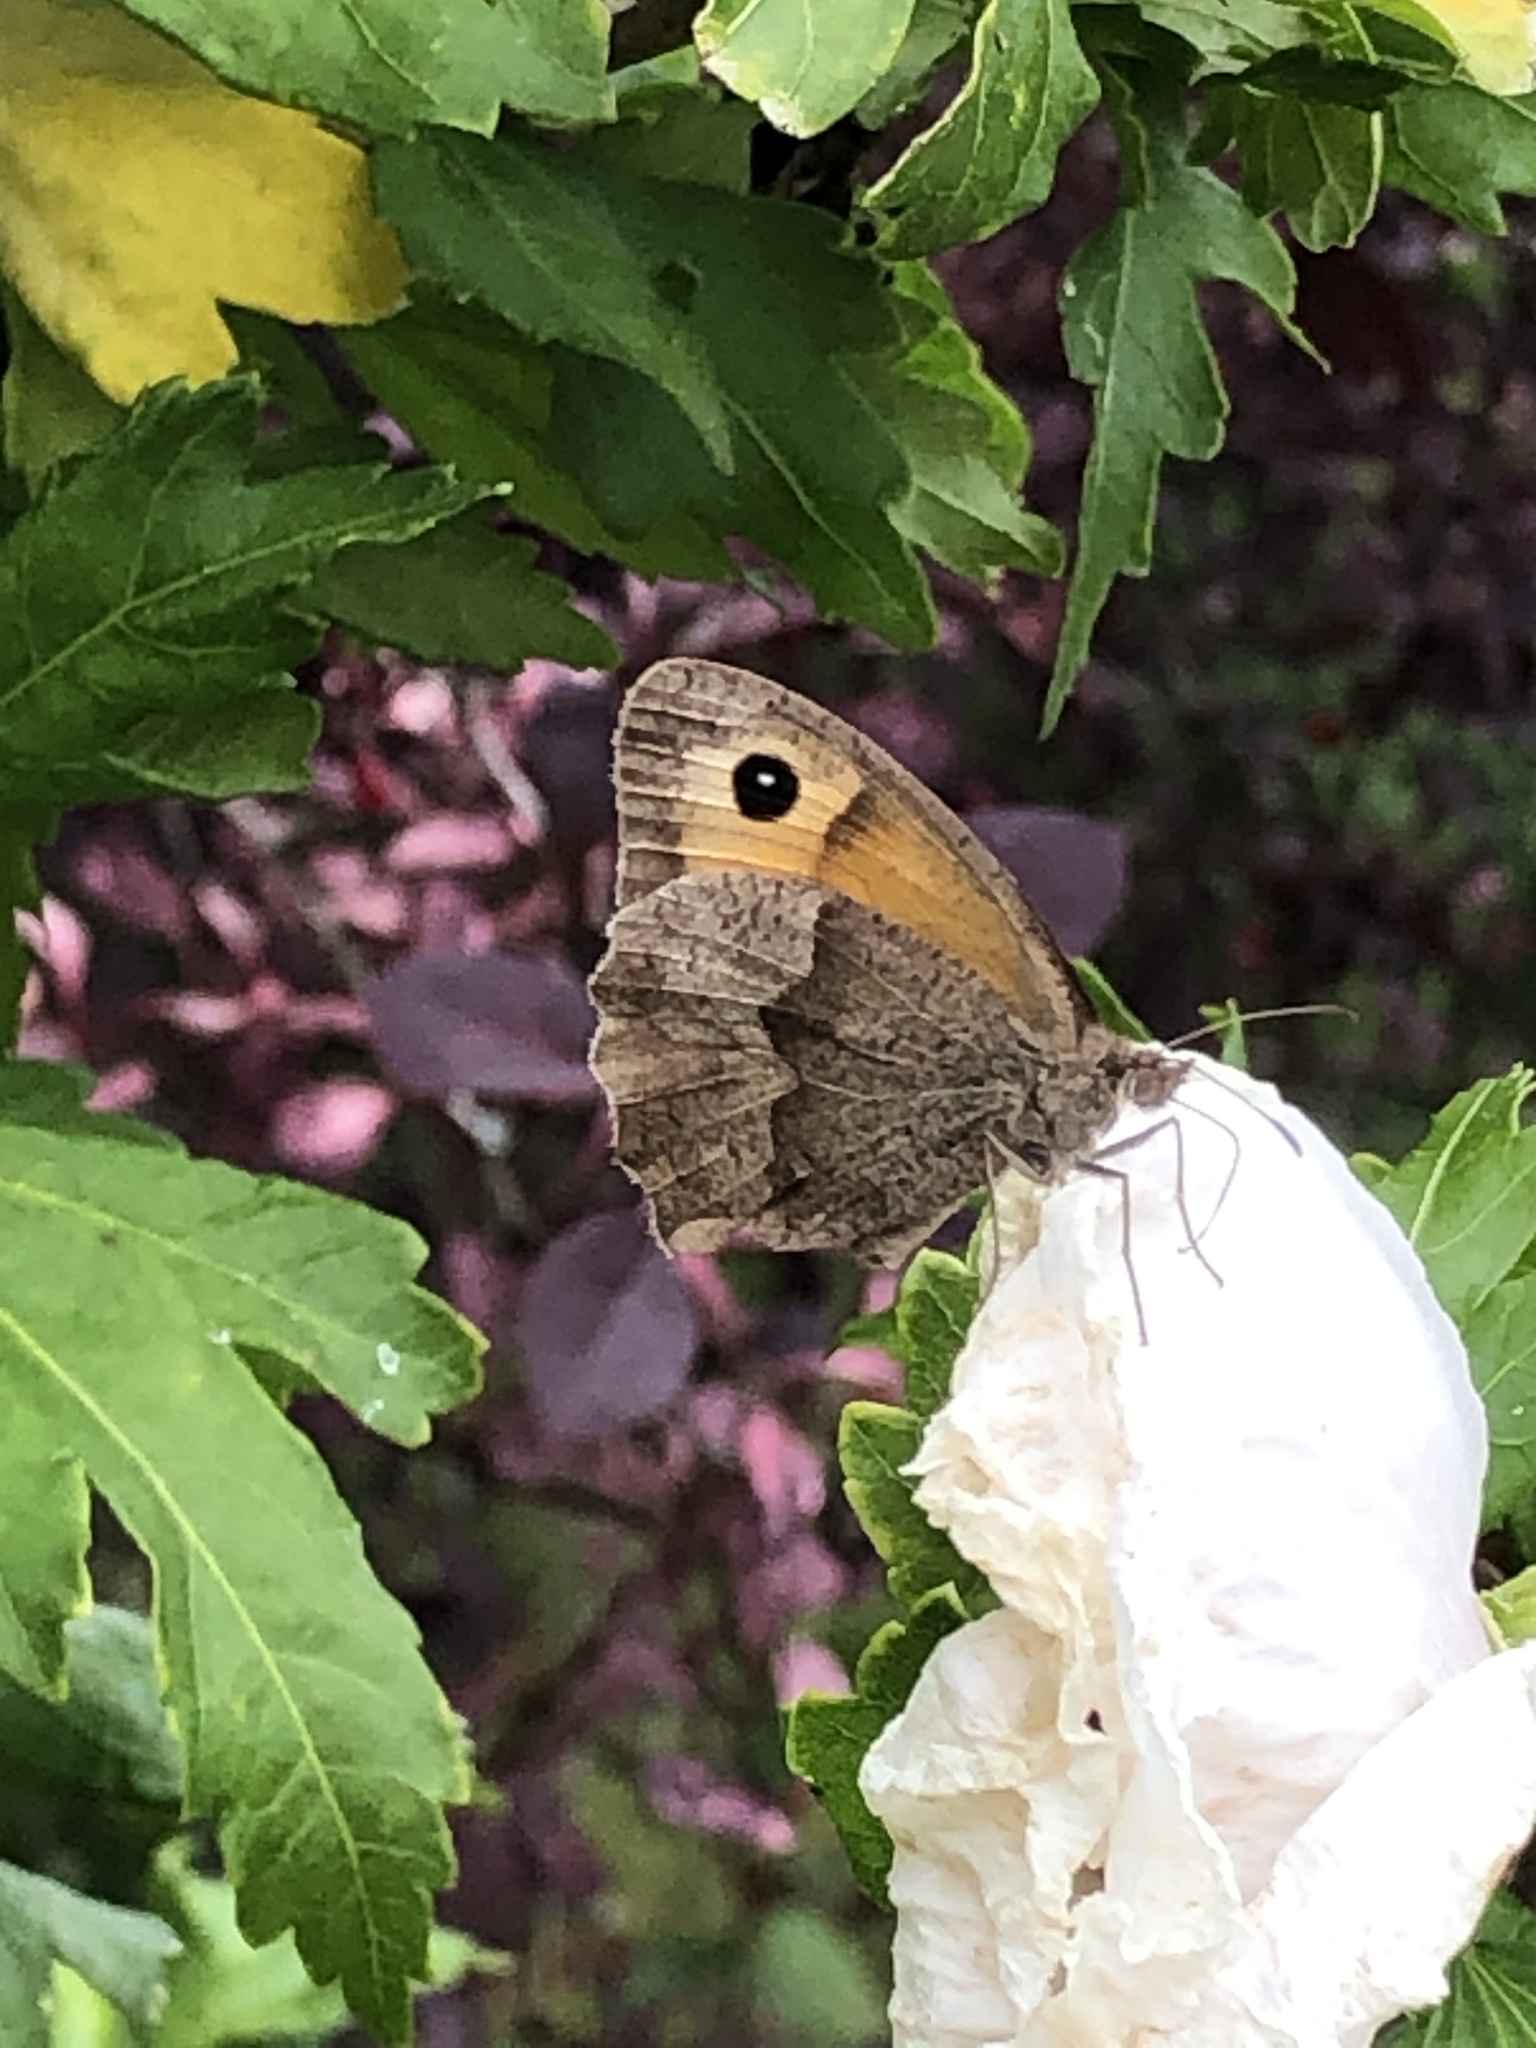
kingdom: Animalia
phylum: Arthropoda
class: Insecta
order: Lepidoptera
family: Nymphalidae
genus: Maniola
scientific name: Maniola jurtina
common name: Meadow brown
